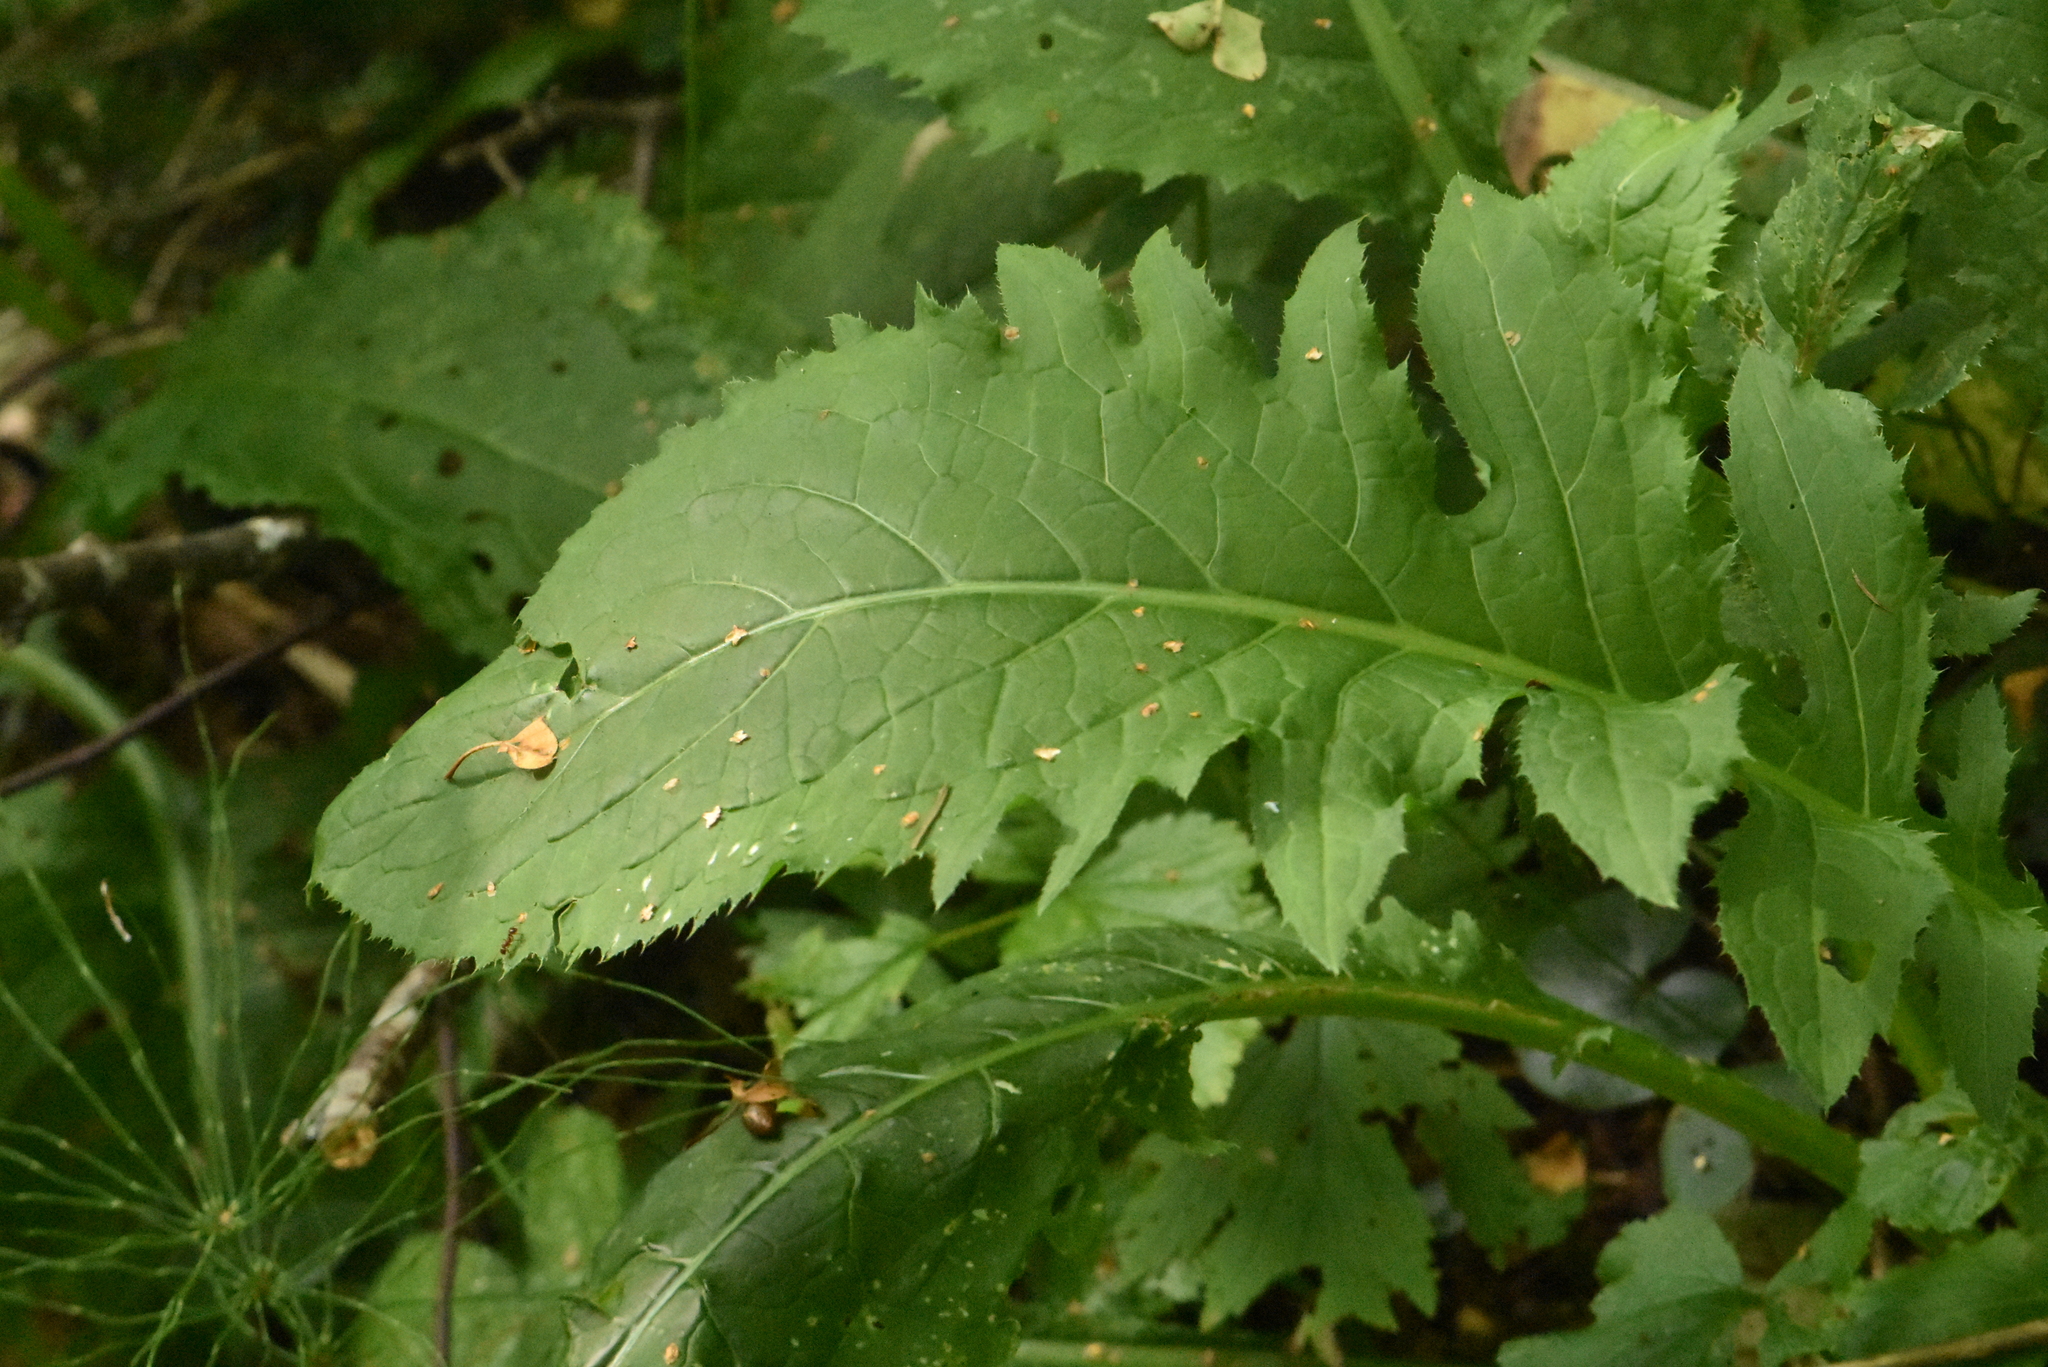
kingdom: Plantae
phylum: Tracheophyta
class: Magnoliopsida
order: Asterales
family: Asteraceae
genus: Cirsium
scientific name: Cirsium oleraceum
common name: Cabbage thistle
